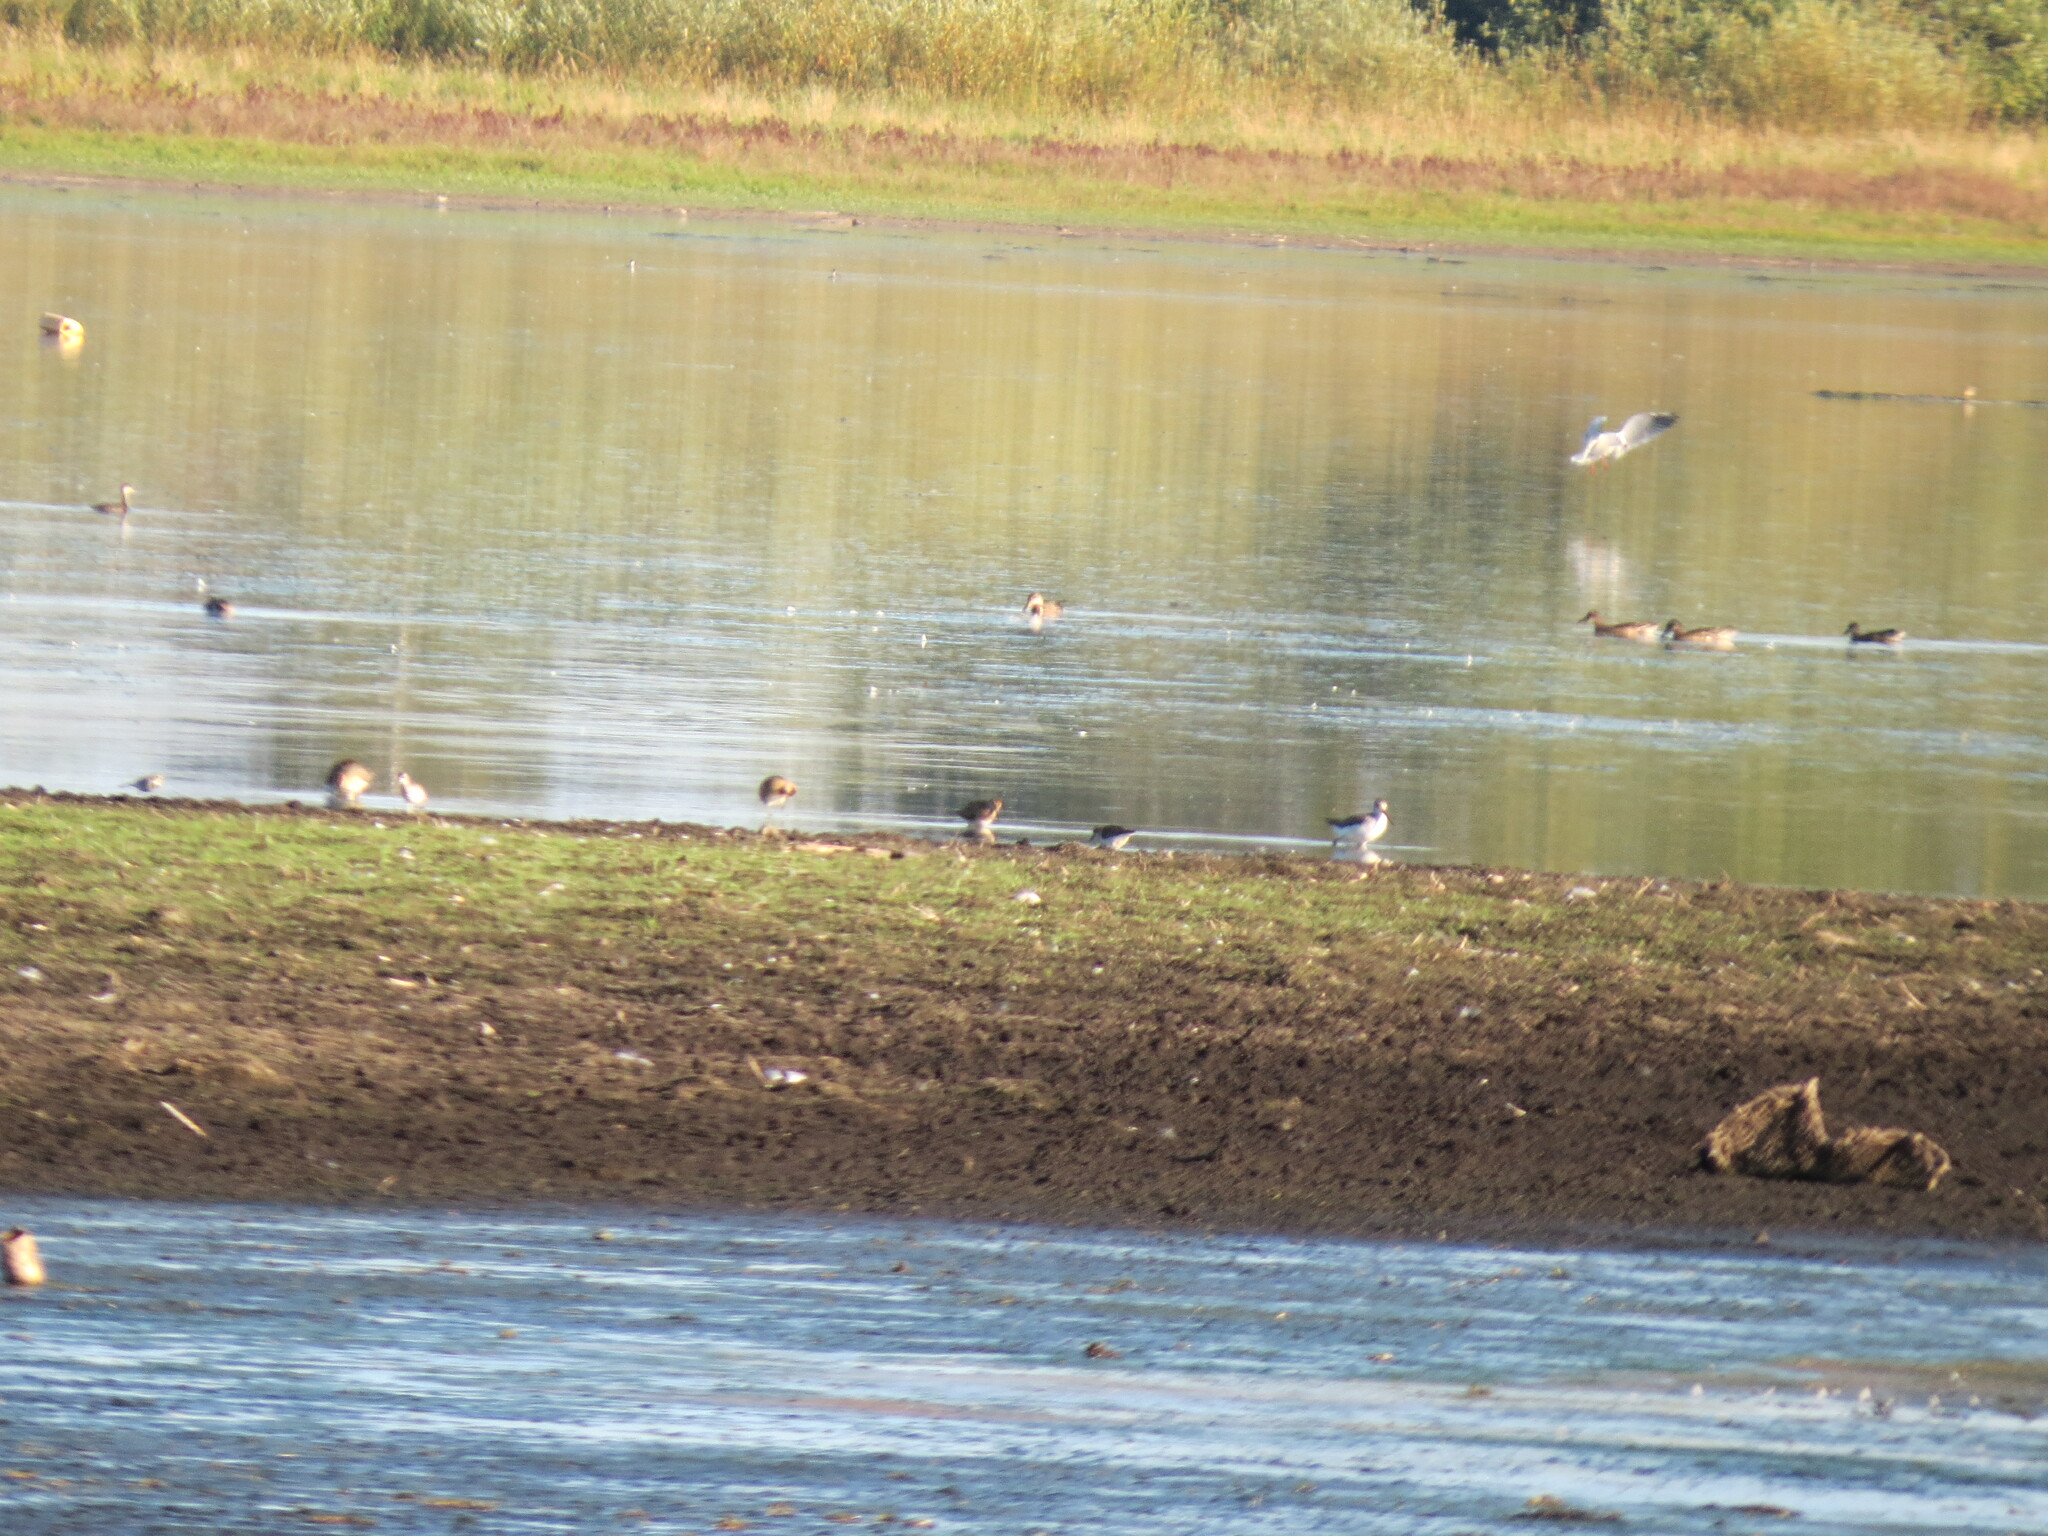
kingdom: Animalia
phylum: Chordata
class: Aves
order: Charadriiformes
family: Scolopacidae
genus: Tringa
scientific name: Tringa nebularia
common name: Common greenshank
